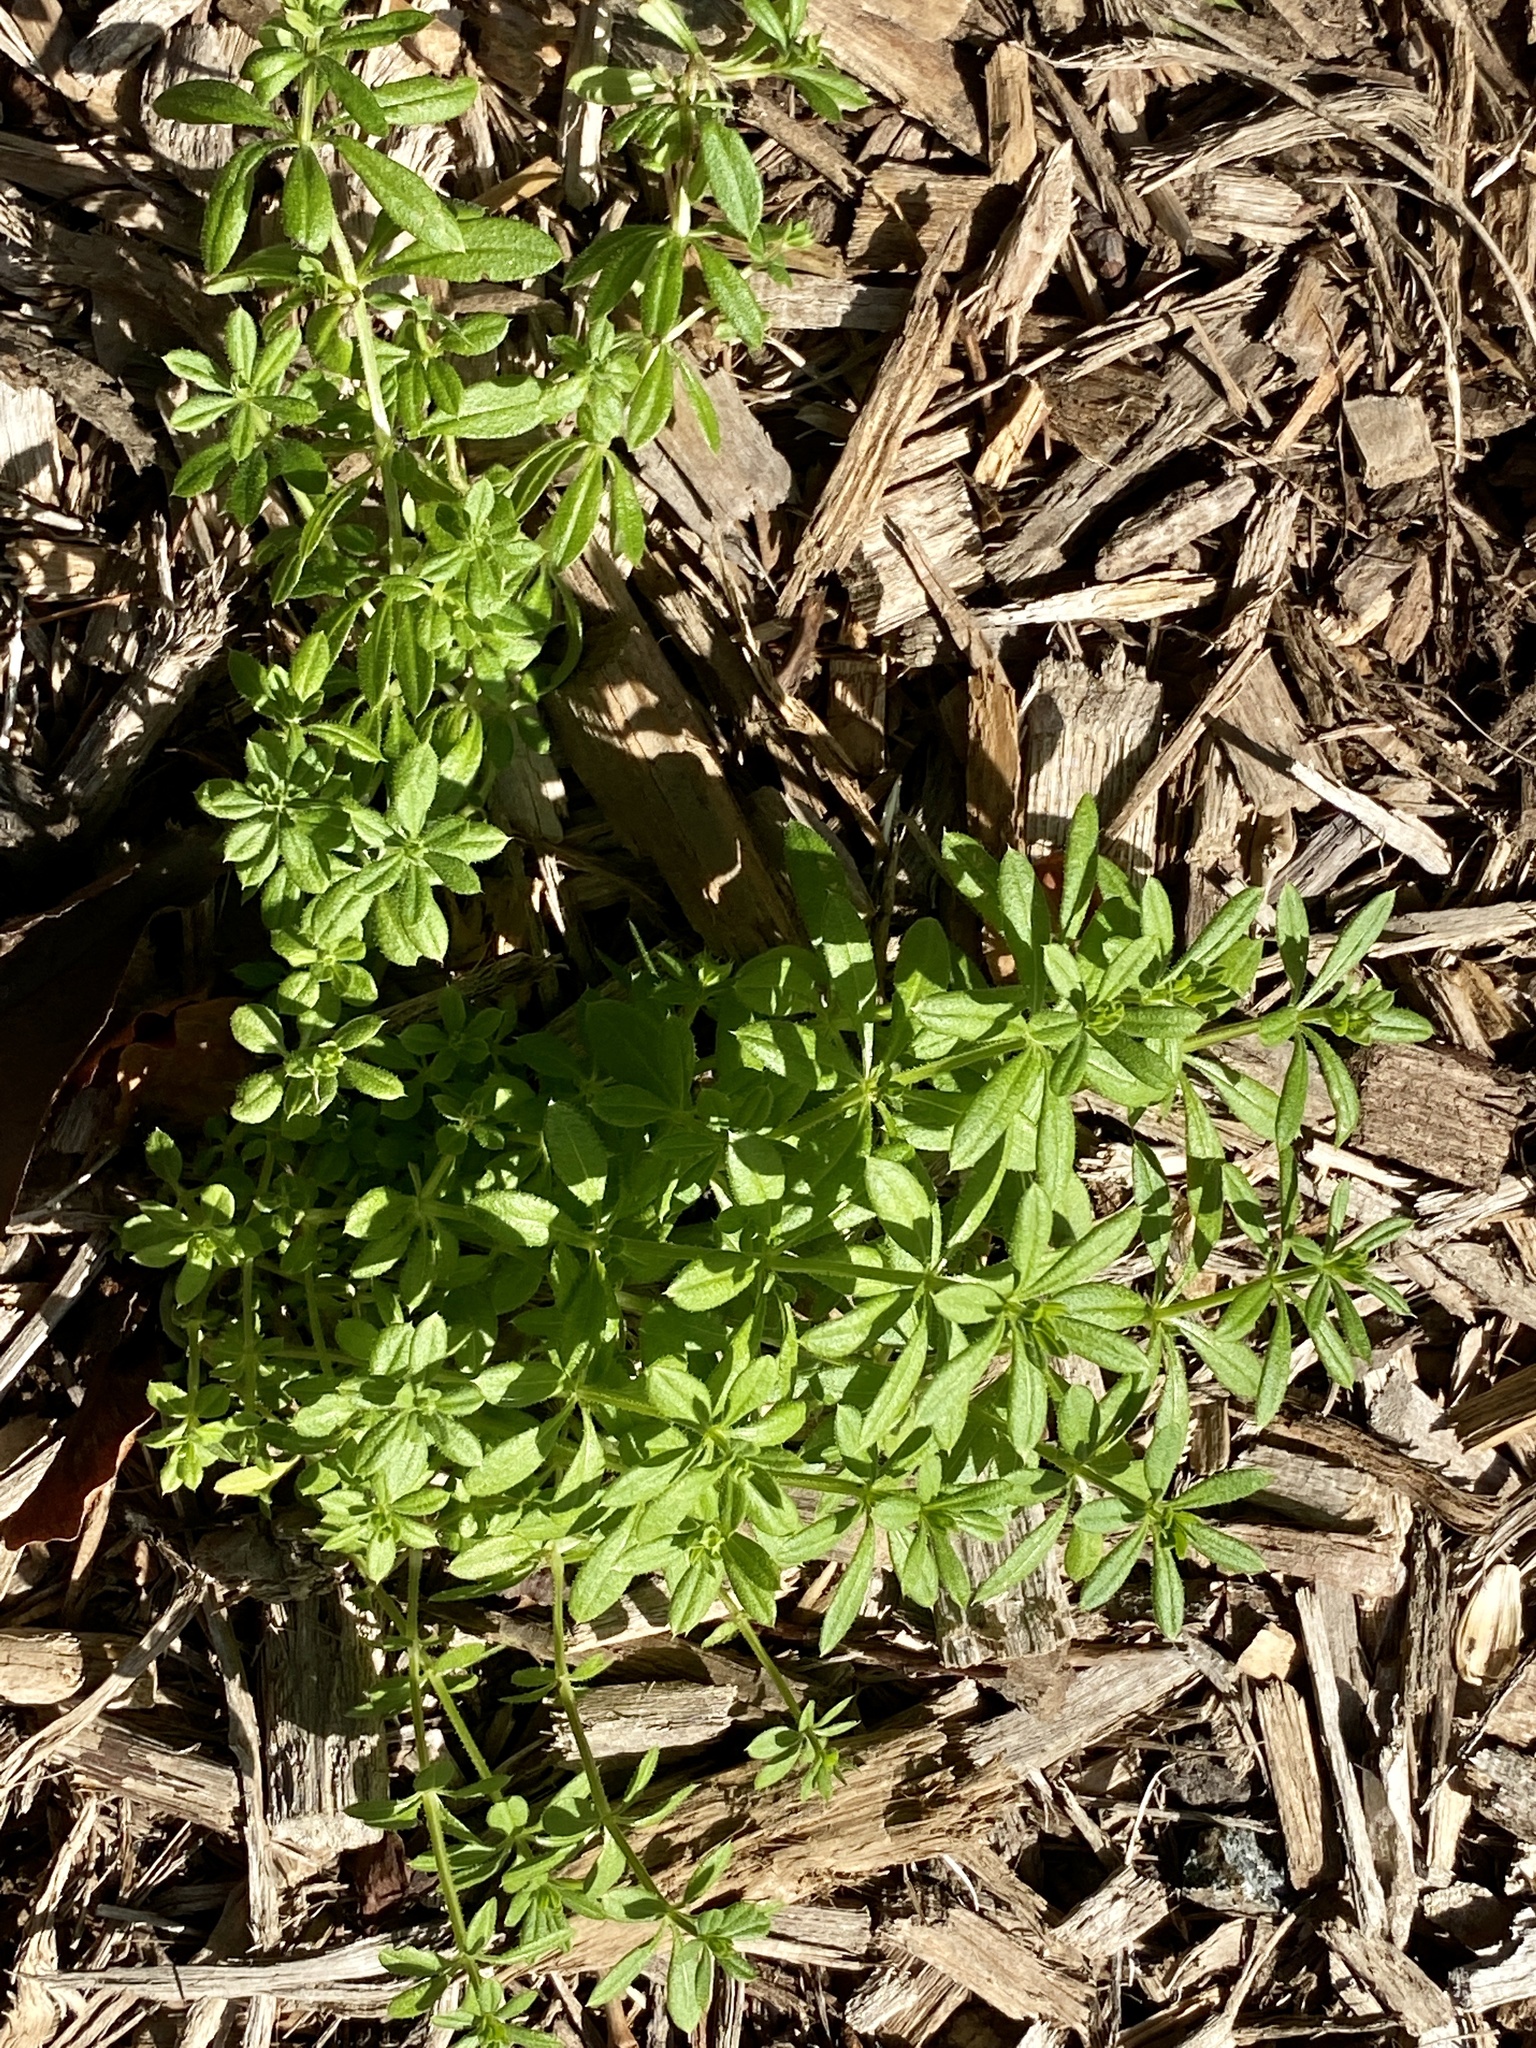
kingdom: Plantae
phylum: Tracheophyta
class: Magnoliopsida
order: Gentianales
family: Rubiaceae
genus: Galium
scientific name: Galium aparine
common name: Cleavers
